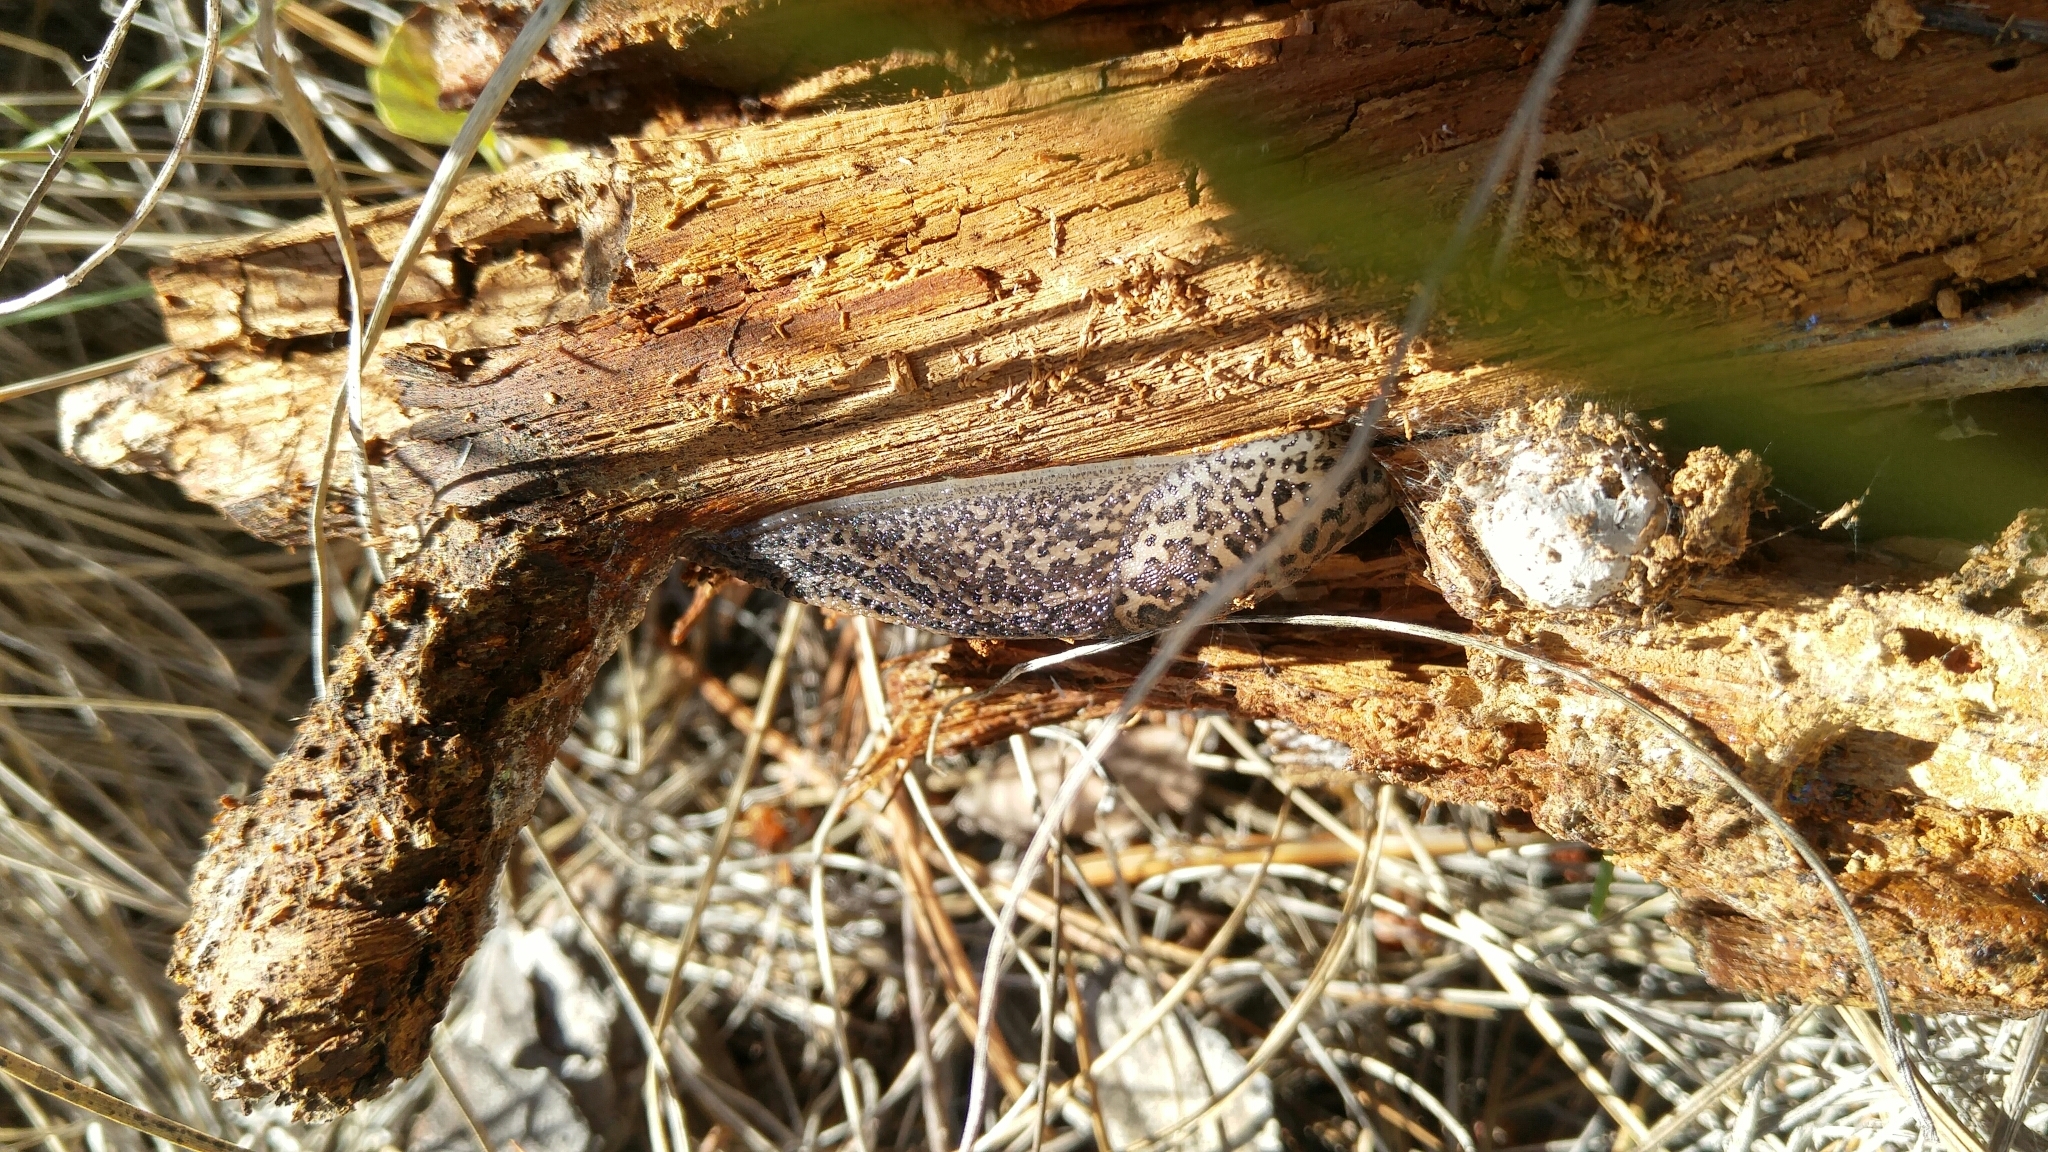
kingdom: Animalia
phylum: Mollusca
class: Gastropoda
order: Stylommatophora
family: Limacidae
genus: Limax
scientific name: Limax maximus
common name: Great grey slug
